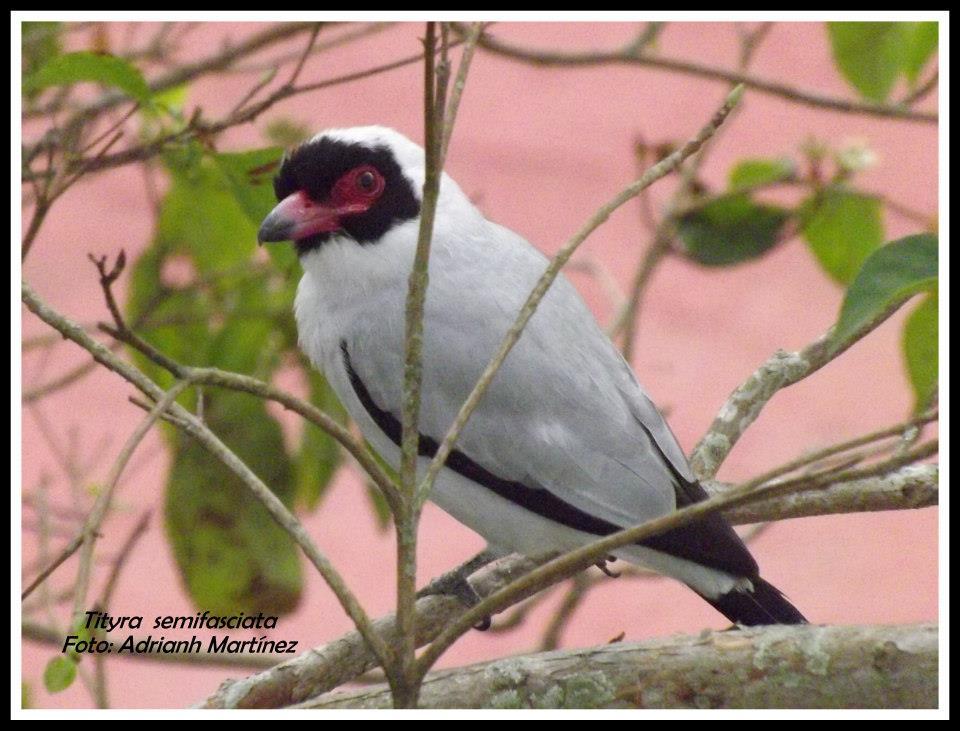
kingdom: Animalia
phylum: Chordata
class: Aves
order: Passeriformes
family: Cotingidae
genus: Tityra
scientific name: Tityra semifasciata
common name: Masked tityra
